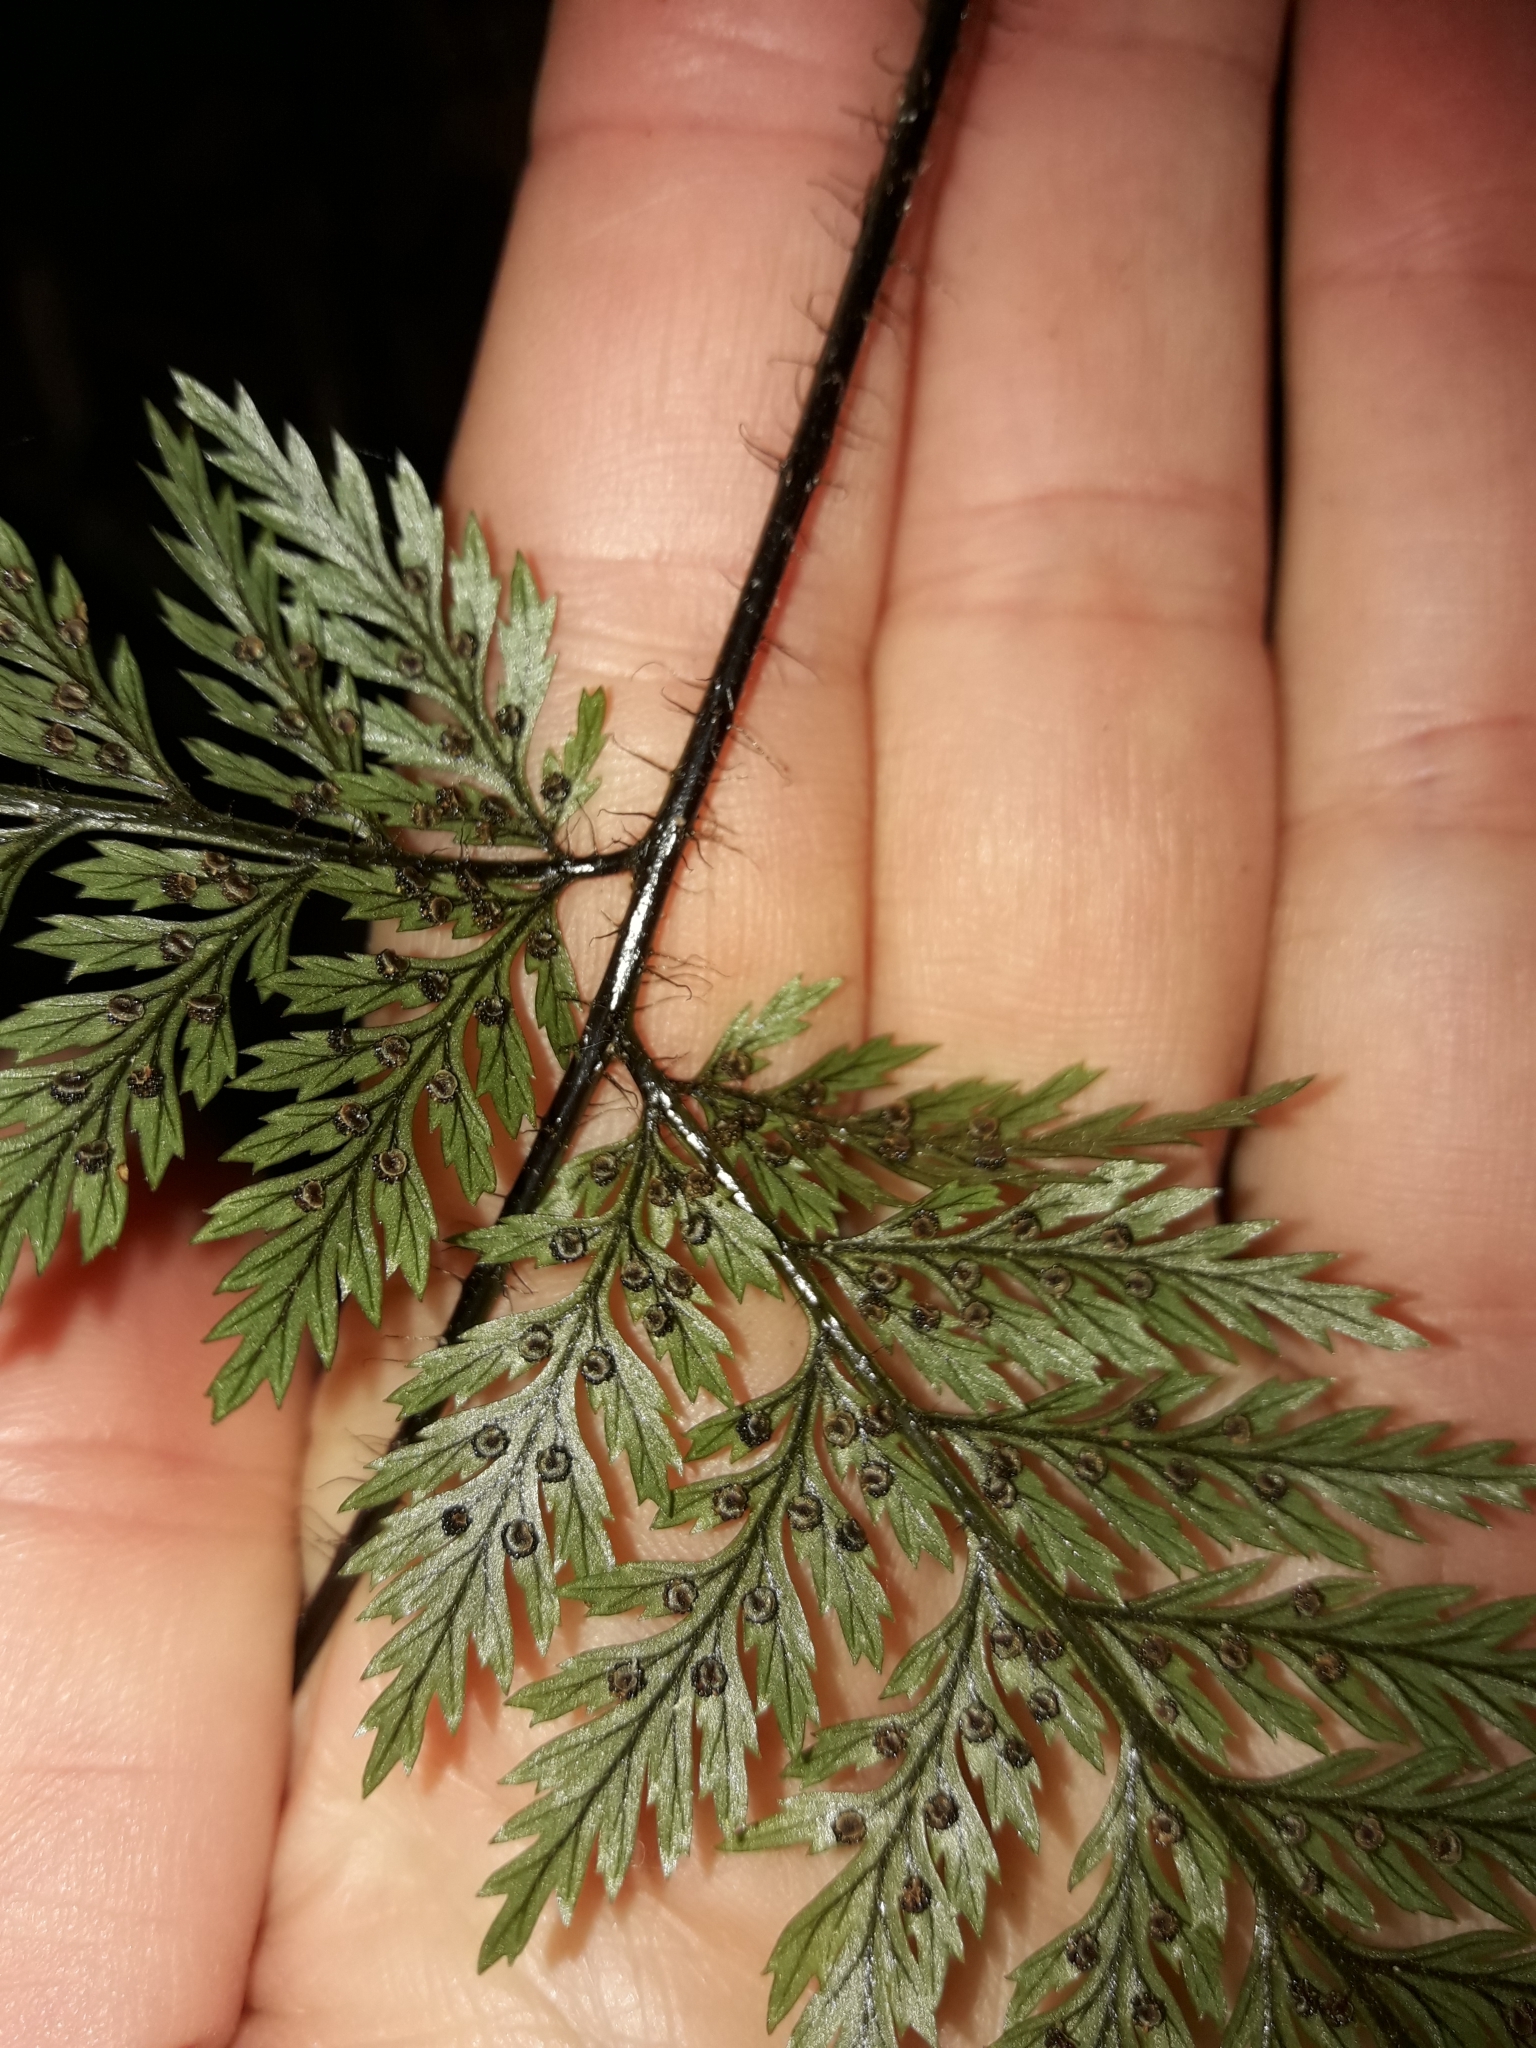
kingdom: Plantae
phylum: Tracheophyta
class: Polypodiopsida
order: Polypodiales
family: Dryopteridaceae
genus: Lastreopsis
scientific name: Lastreopsis hispida
